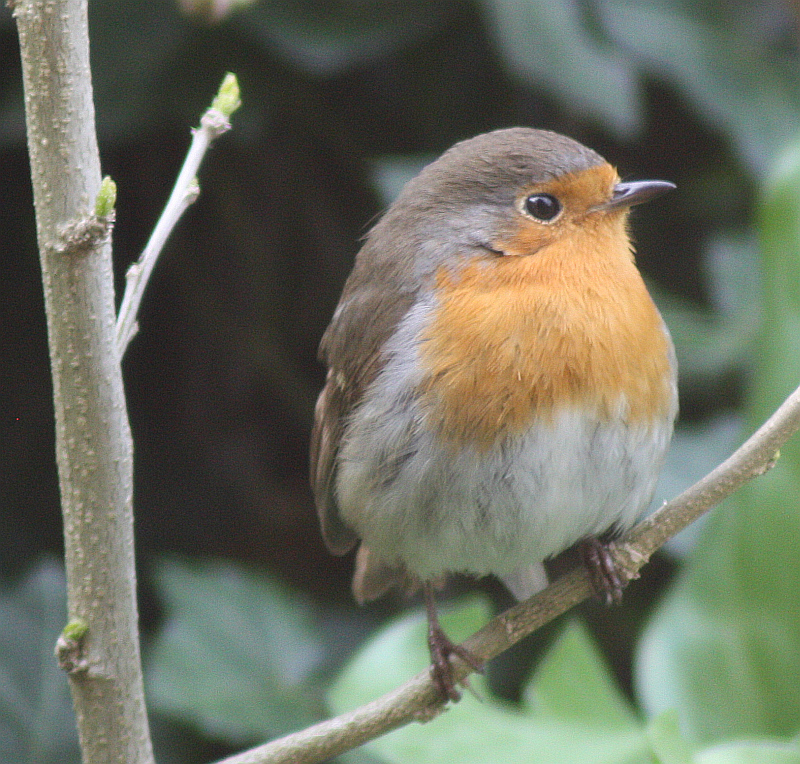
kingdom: Animalia
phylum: Chordata
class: Aves
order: Passeriformes
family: Muscicapidae
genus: Erithacus
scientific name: Erithacus rubecula
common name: European robin
